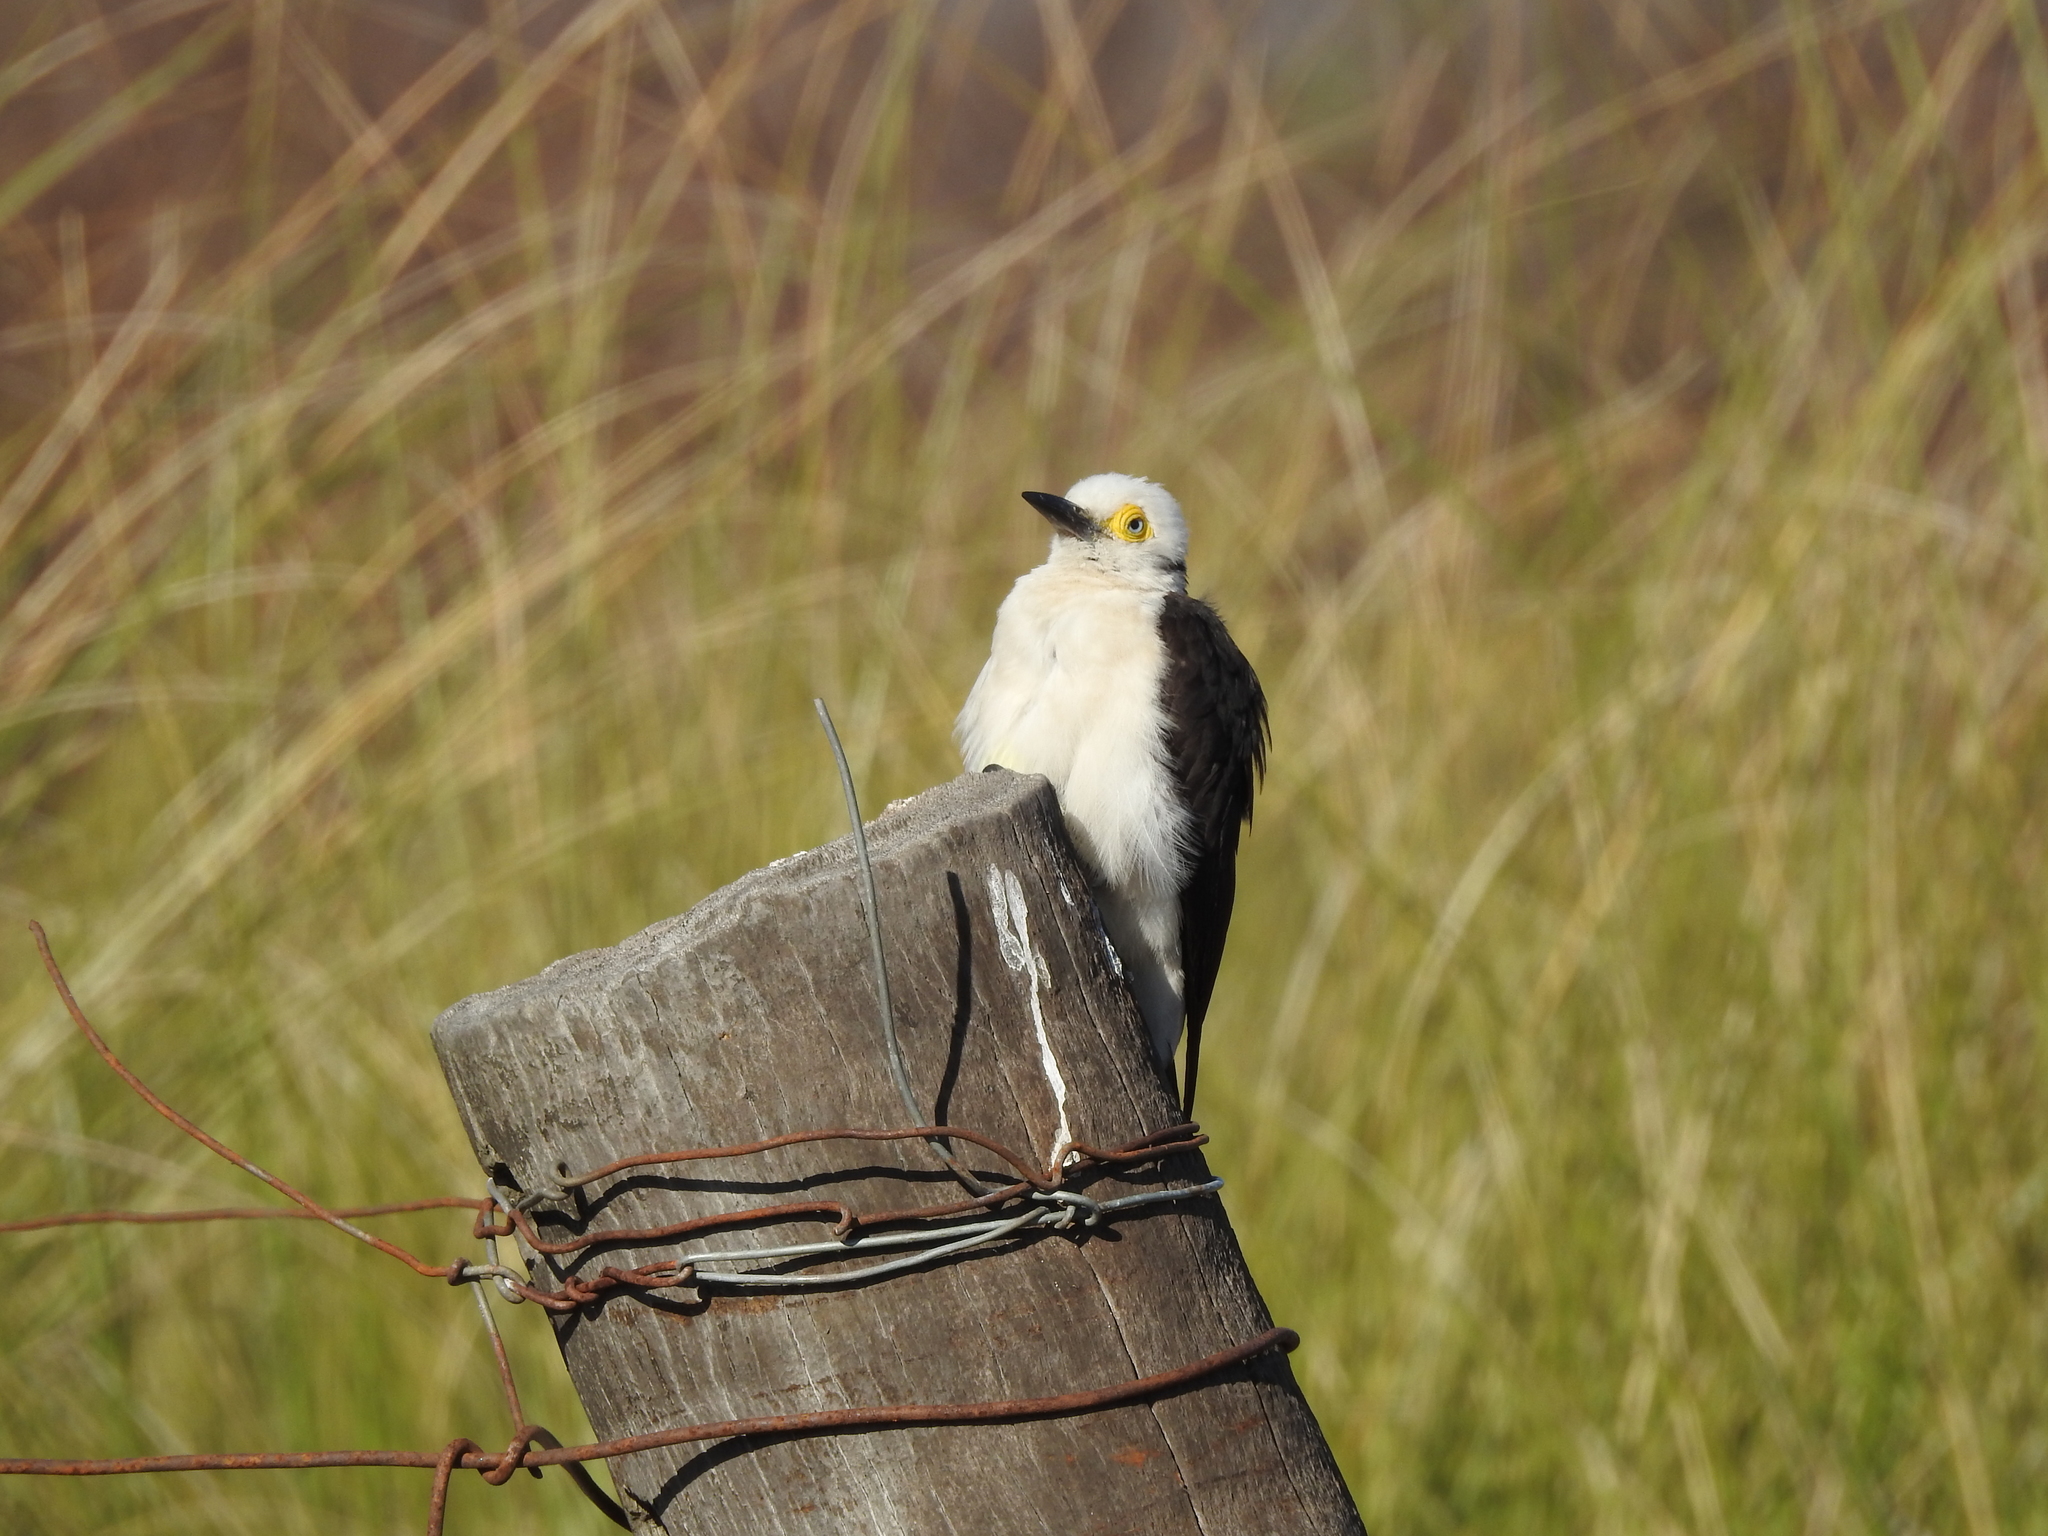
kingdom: Animalia
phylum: Chordata
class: Aves
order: Piciformes
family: Picidae
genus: Melanerpes
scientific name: Melanerpes candidus
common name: White woodpecker
